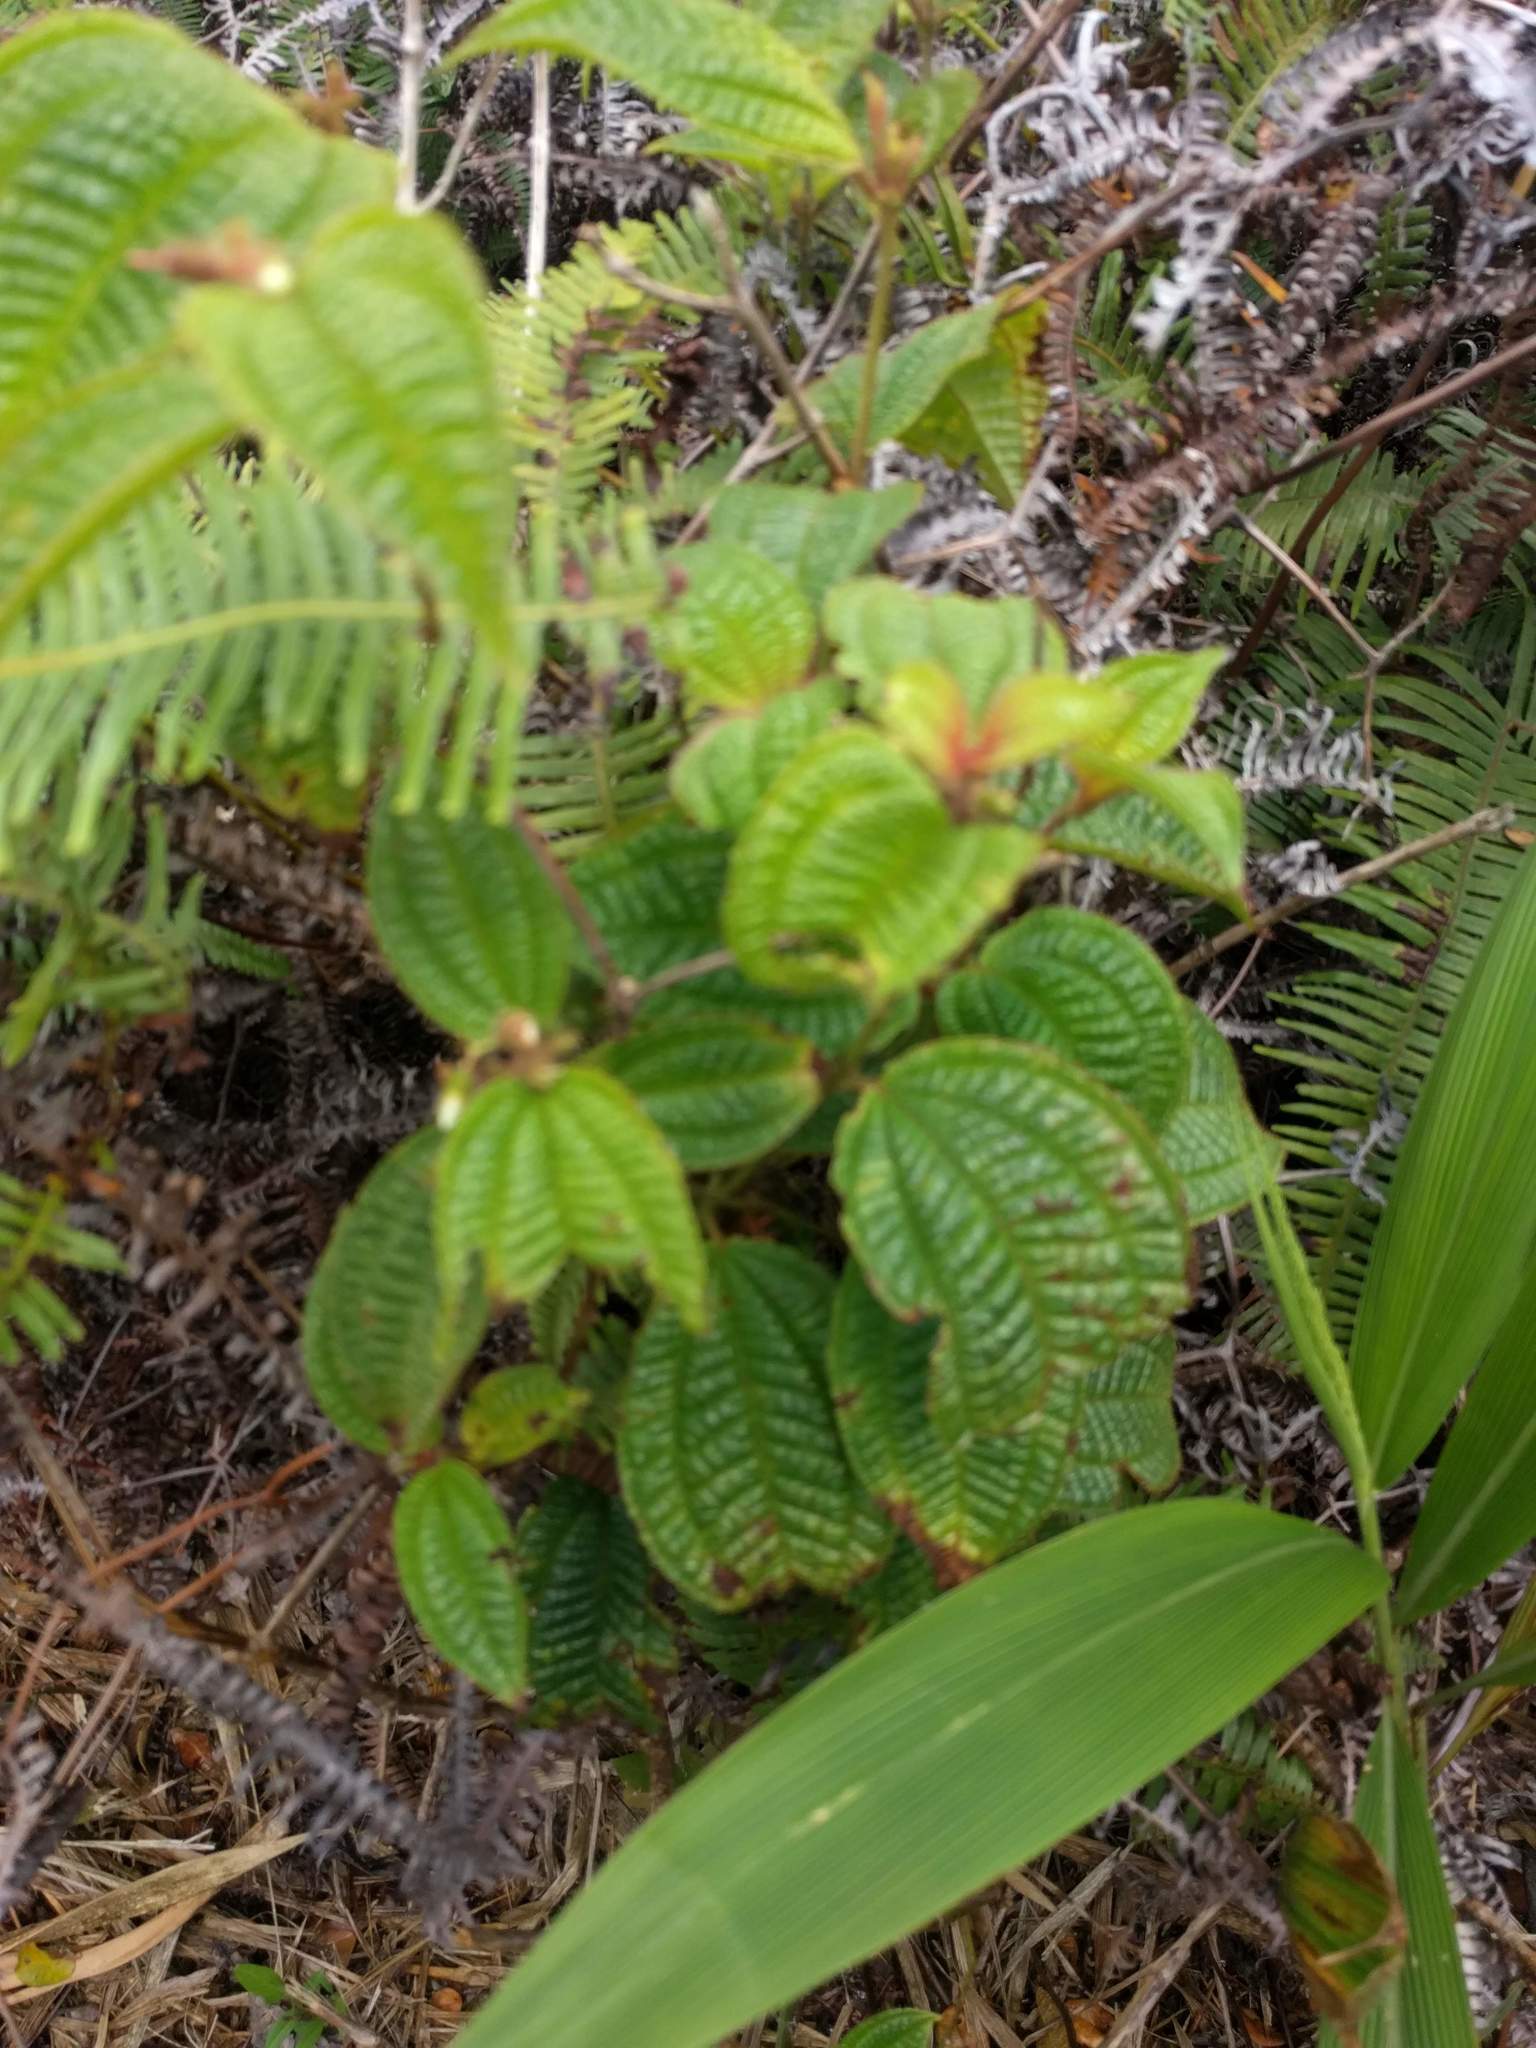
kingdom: Plantae
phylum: Tracheophyta
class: Magnoliopsida
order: Myrtales
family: Melastomataceae
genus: Miconia
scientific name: Miconia crenata
